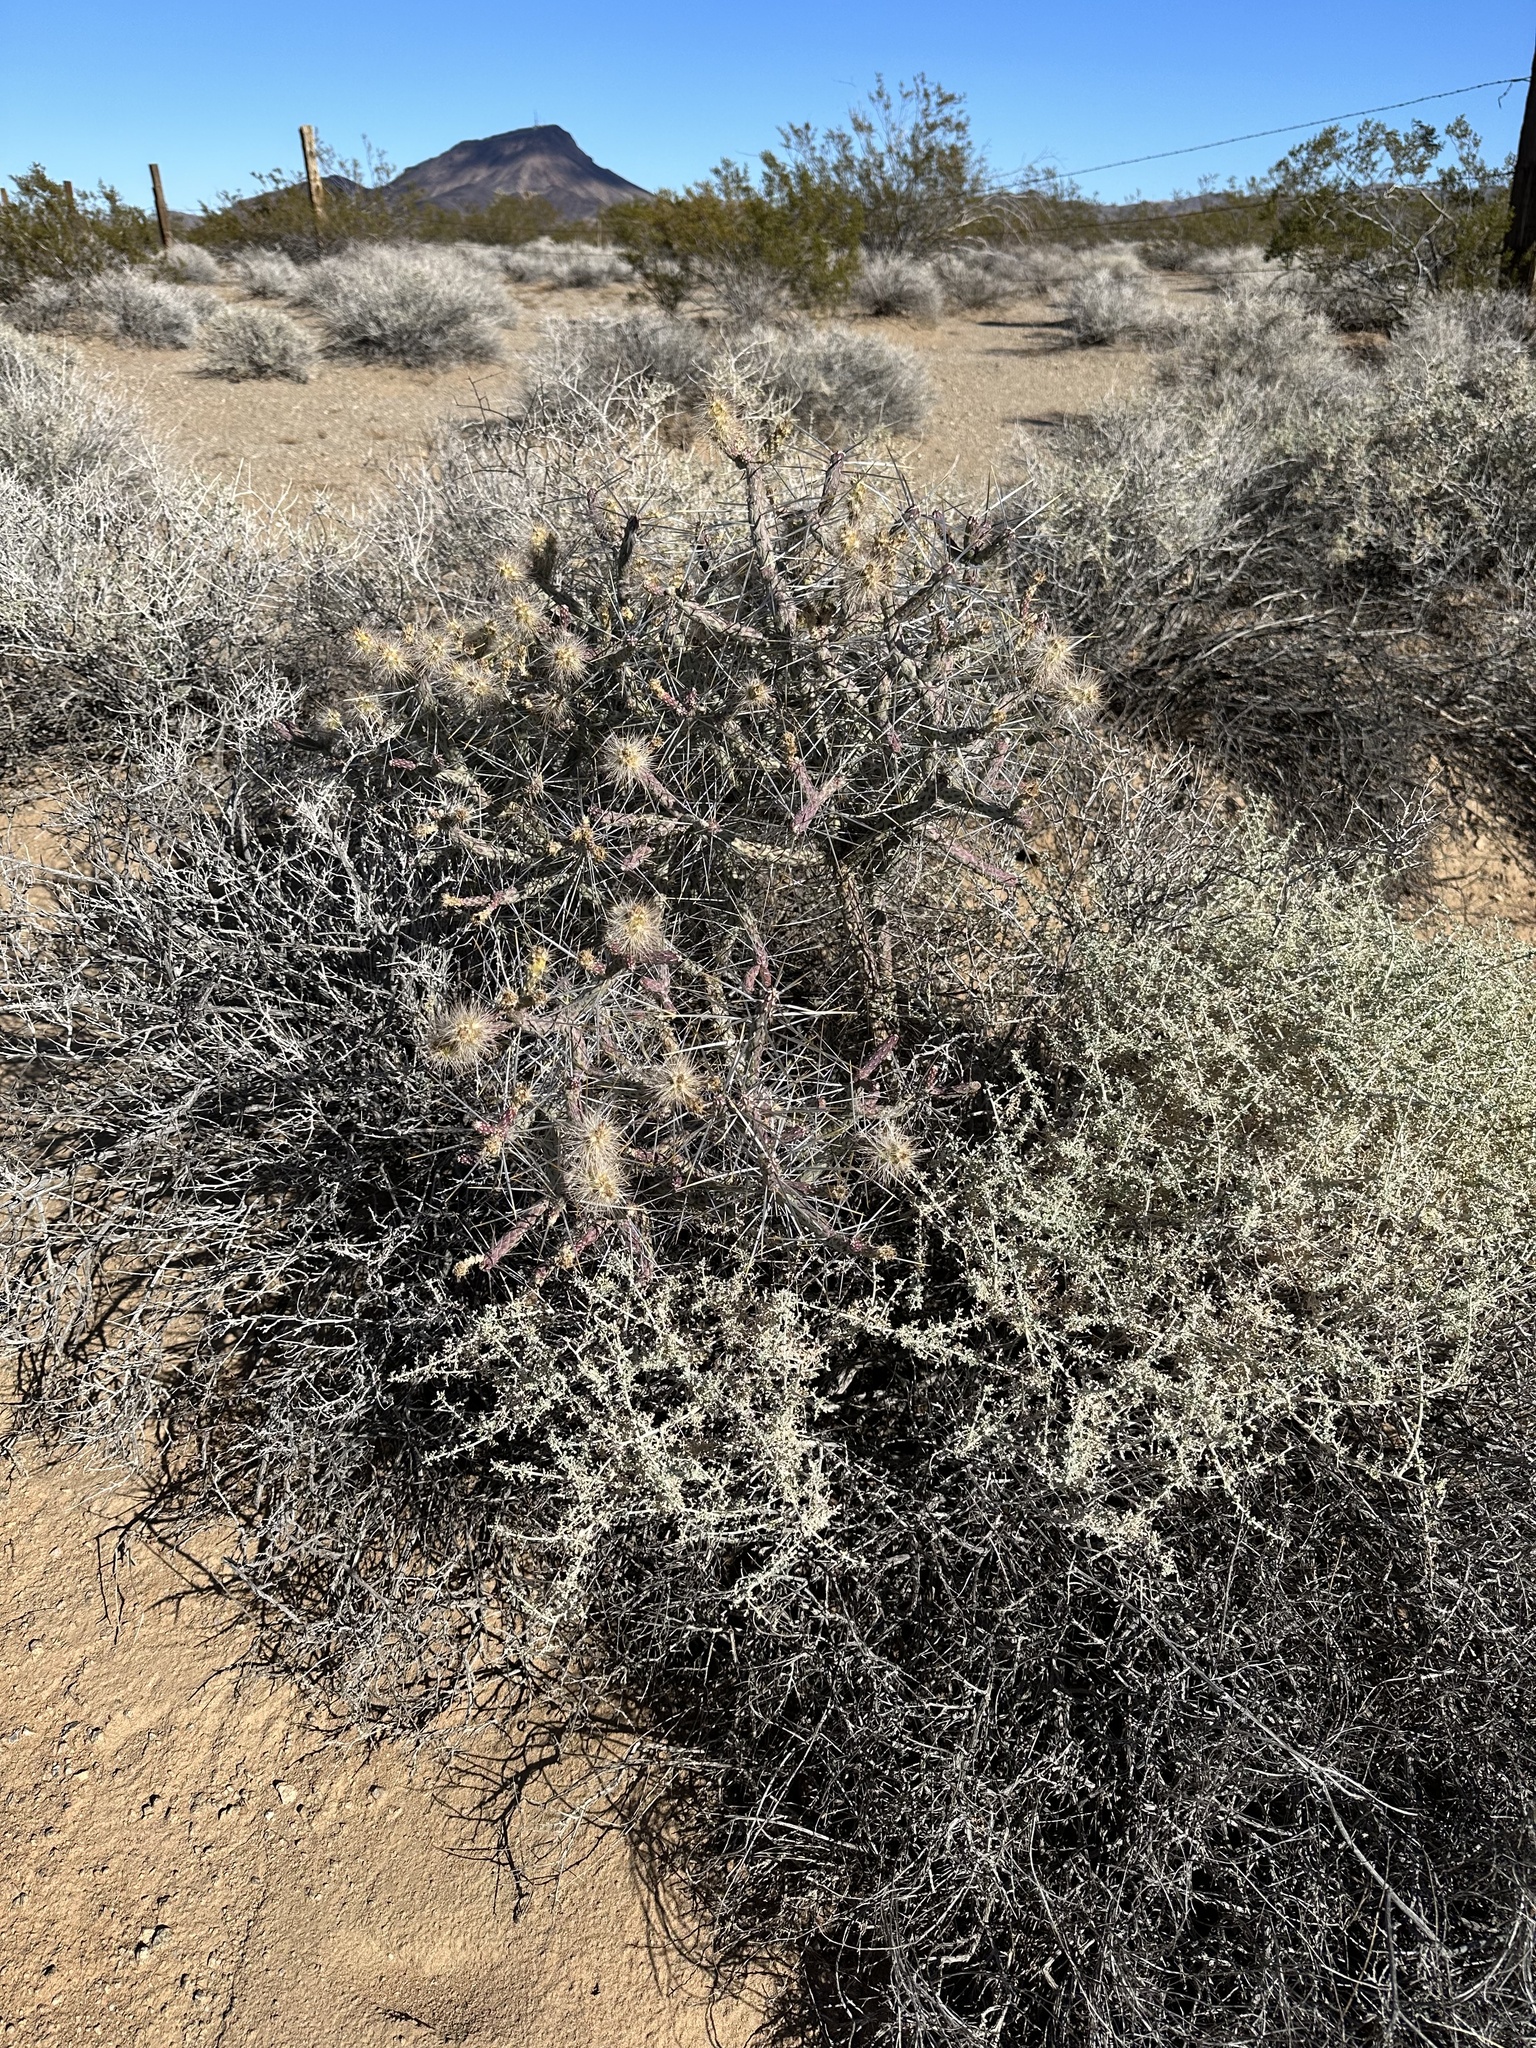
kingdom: Plantae
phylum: Tracheophyta
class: Magnoliopsida
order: Caryophyllales
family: Cactaceae
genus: Cylindropuntia
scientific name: Cylindropuntia ramosissima
